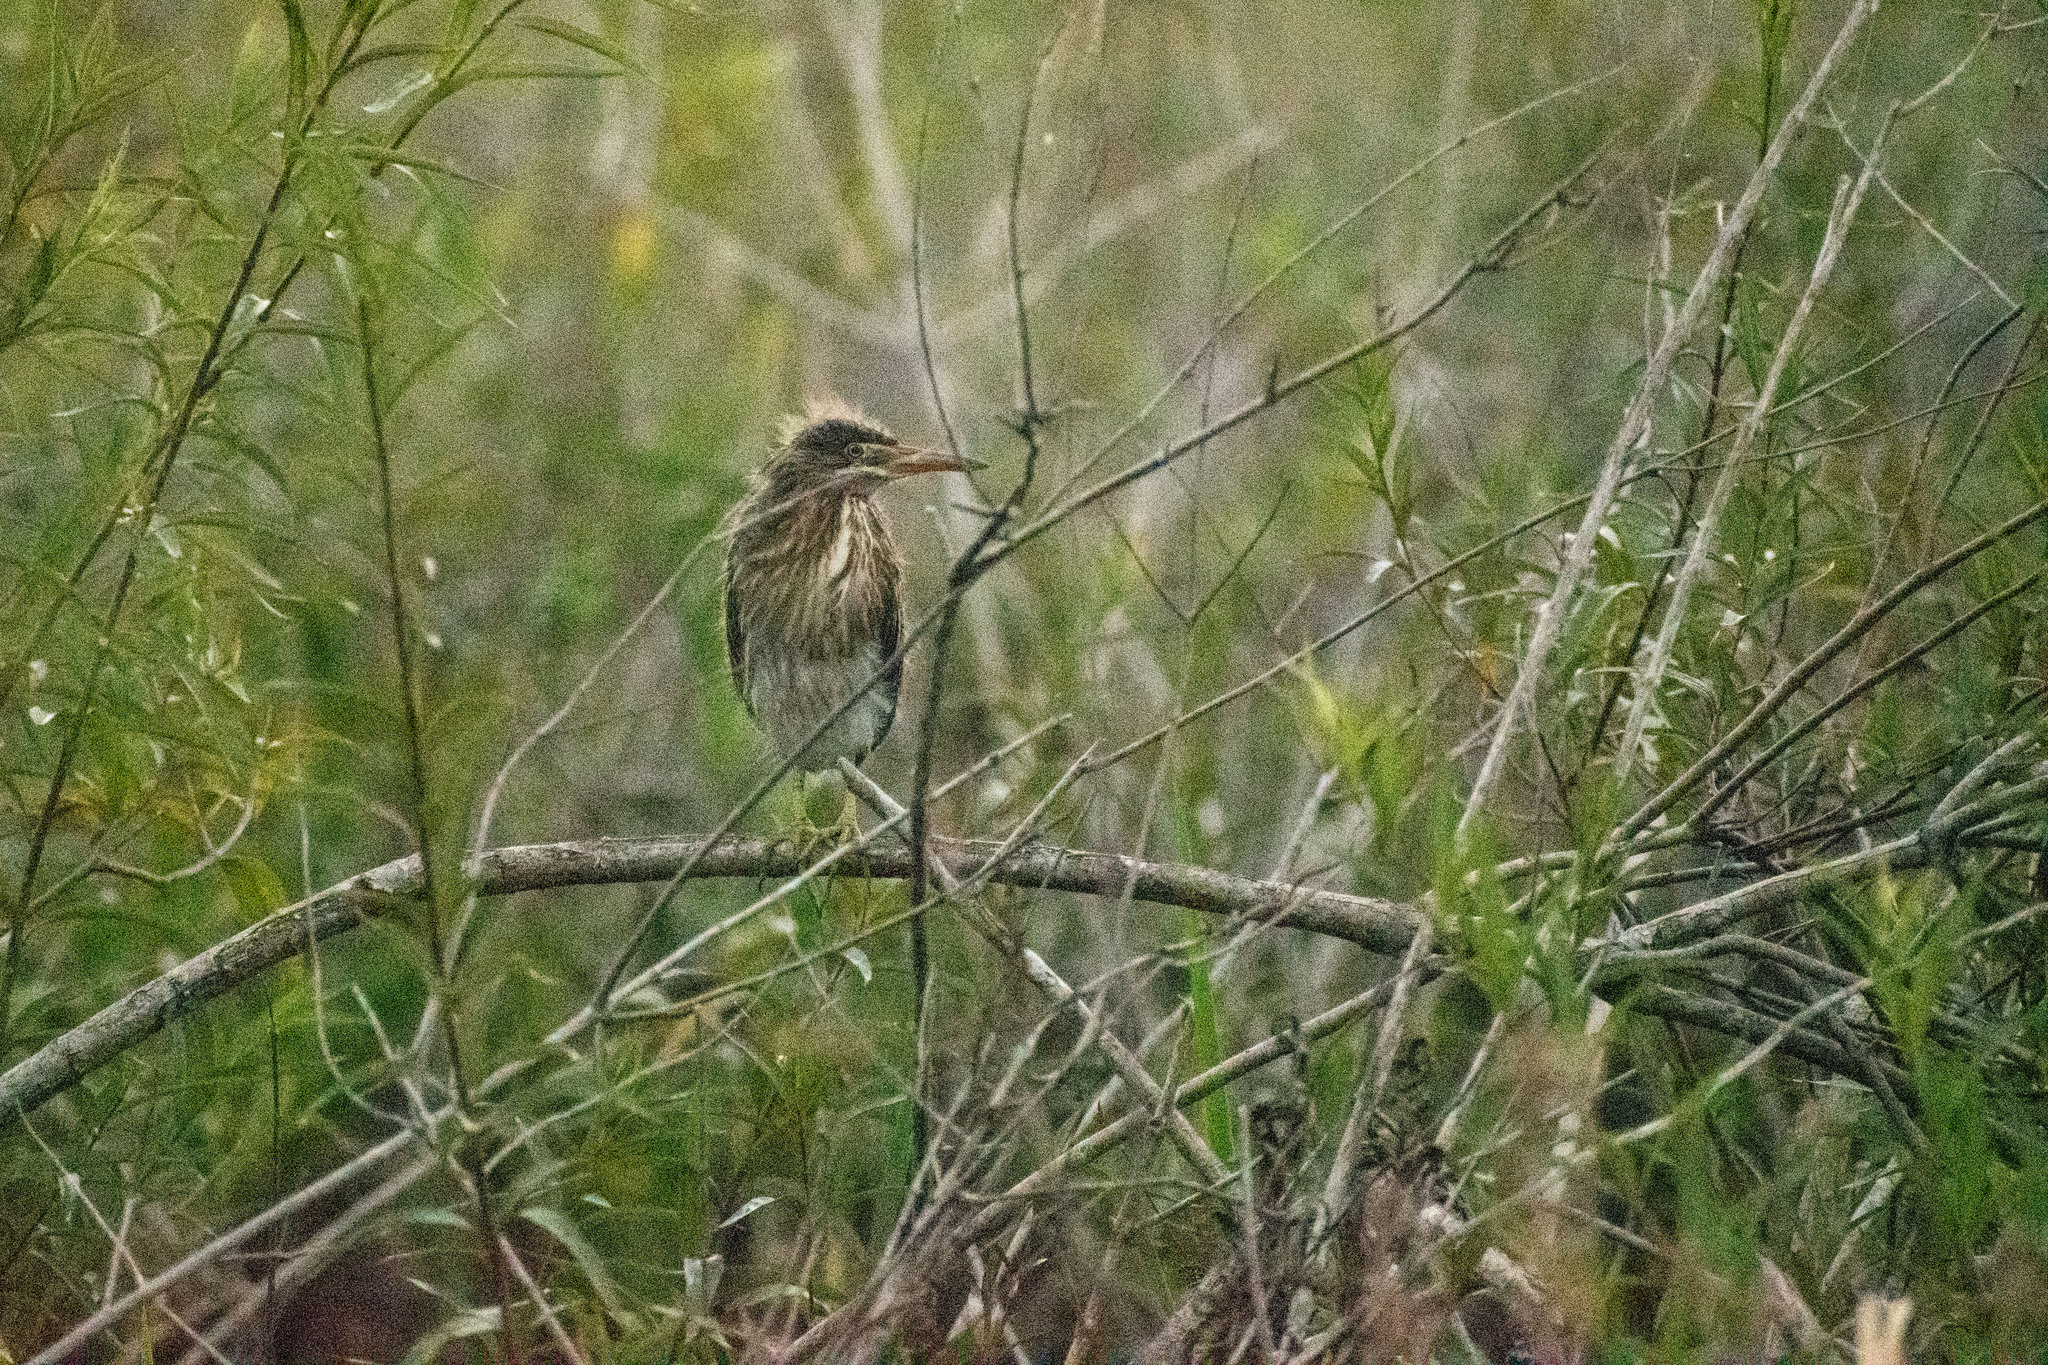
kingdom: Animalia
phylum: Chordata
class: Aves
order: Pelecaniformes
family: Ardeidae
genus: Butorides
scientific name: Butorides striata
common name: Striated heron
